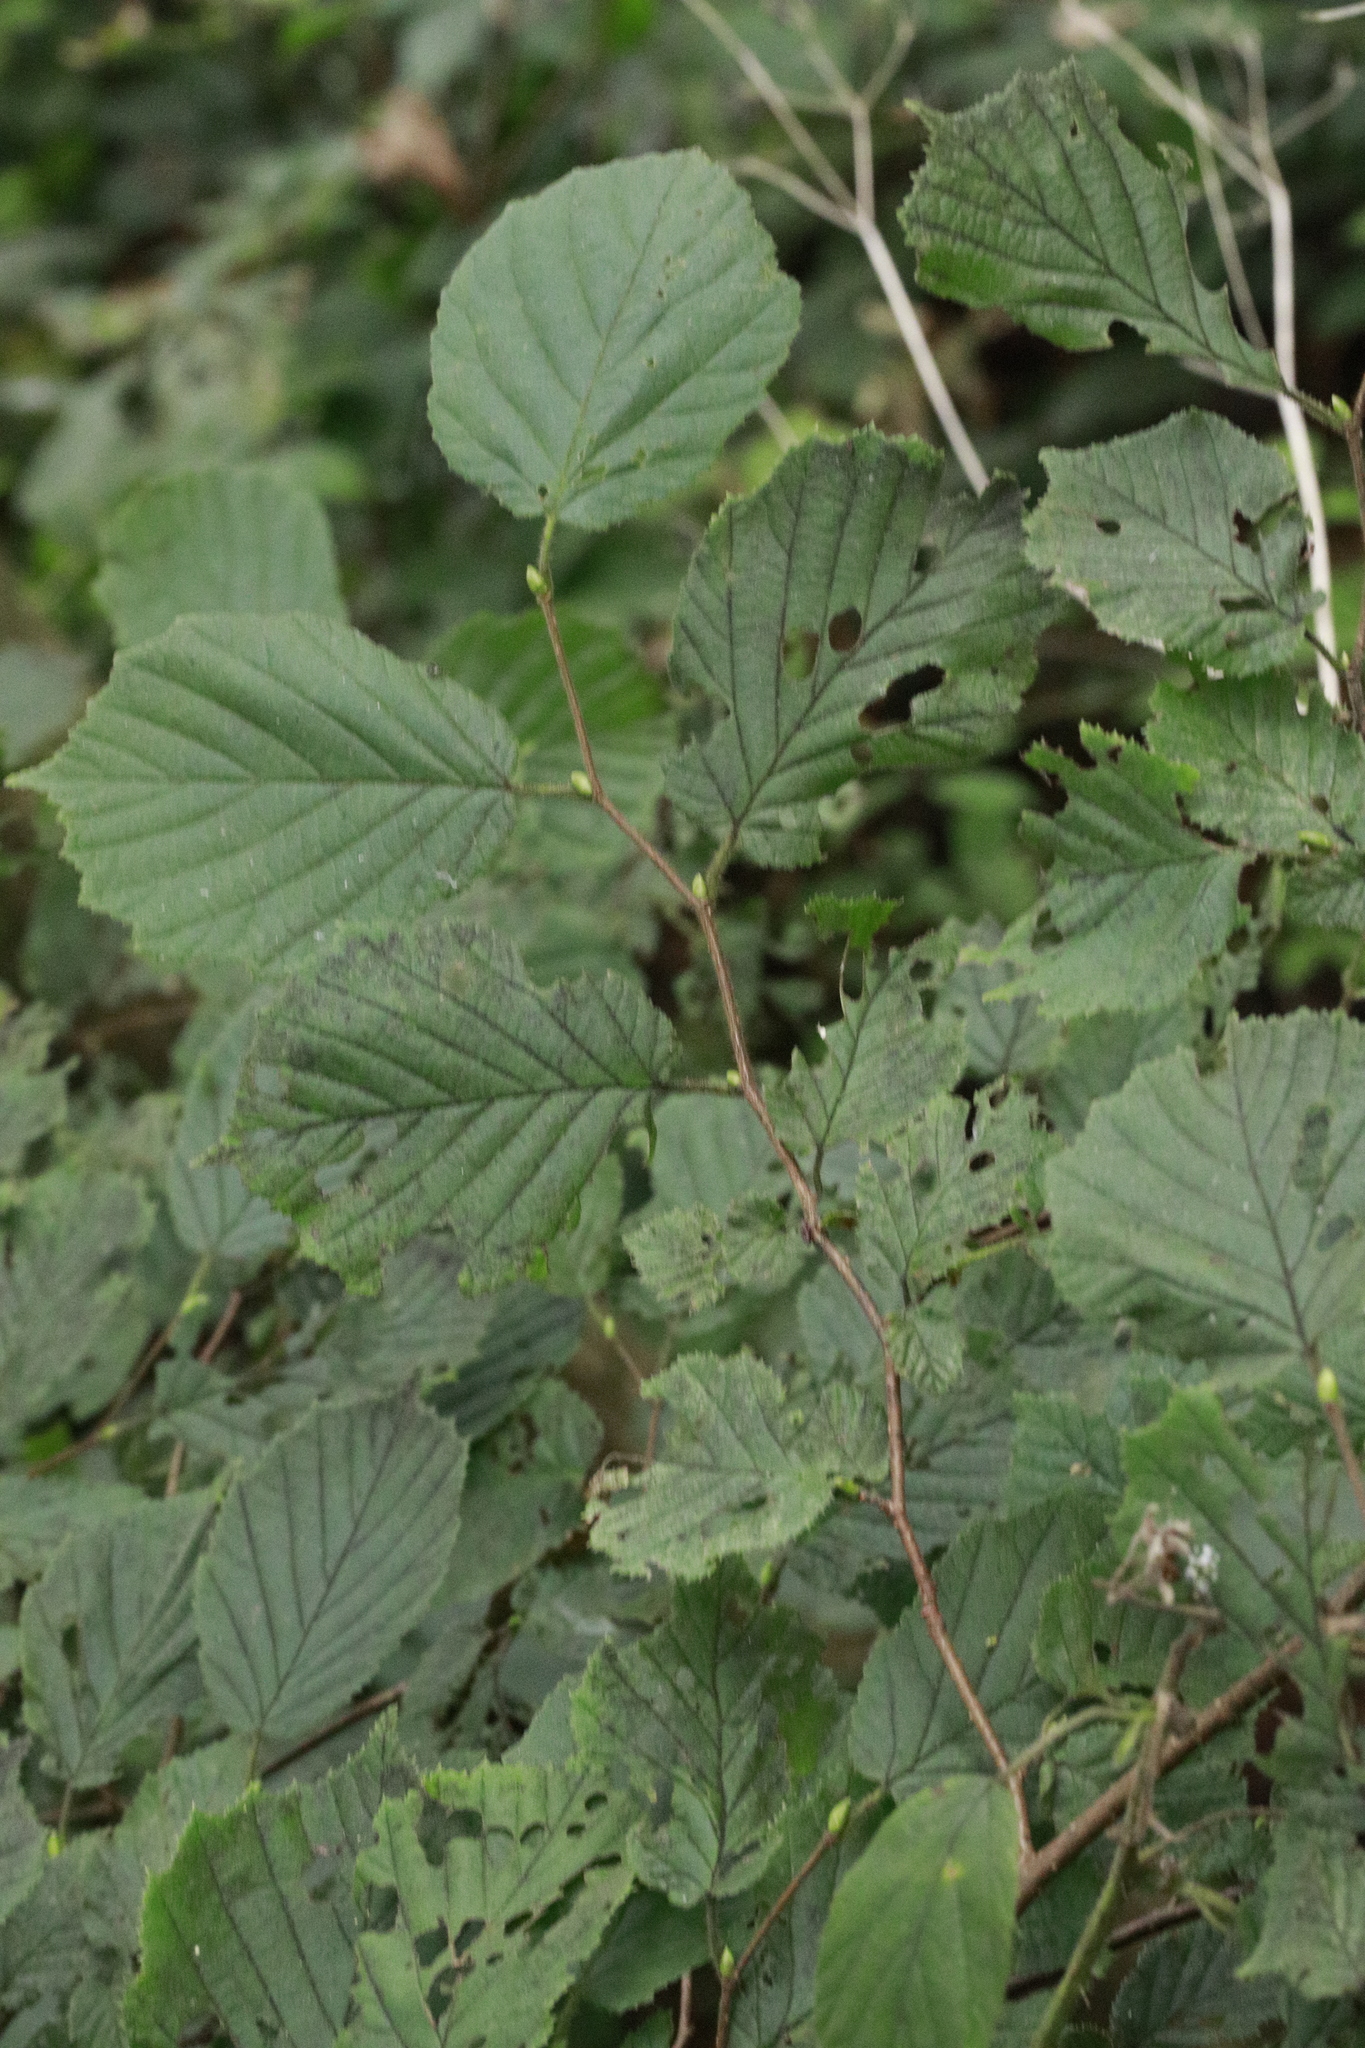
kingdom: Plantae
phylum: Tracheophyta
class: Magnoliopsida
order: Fagales
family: Betulaceae
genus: Corylus
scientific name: Corylus avellana
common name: European hazel
